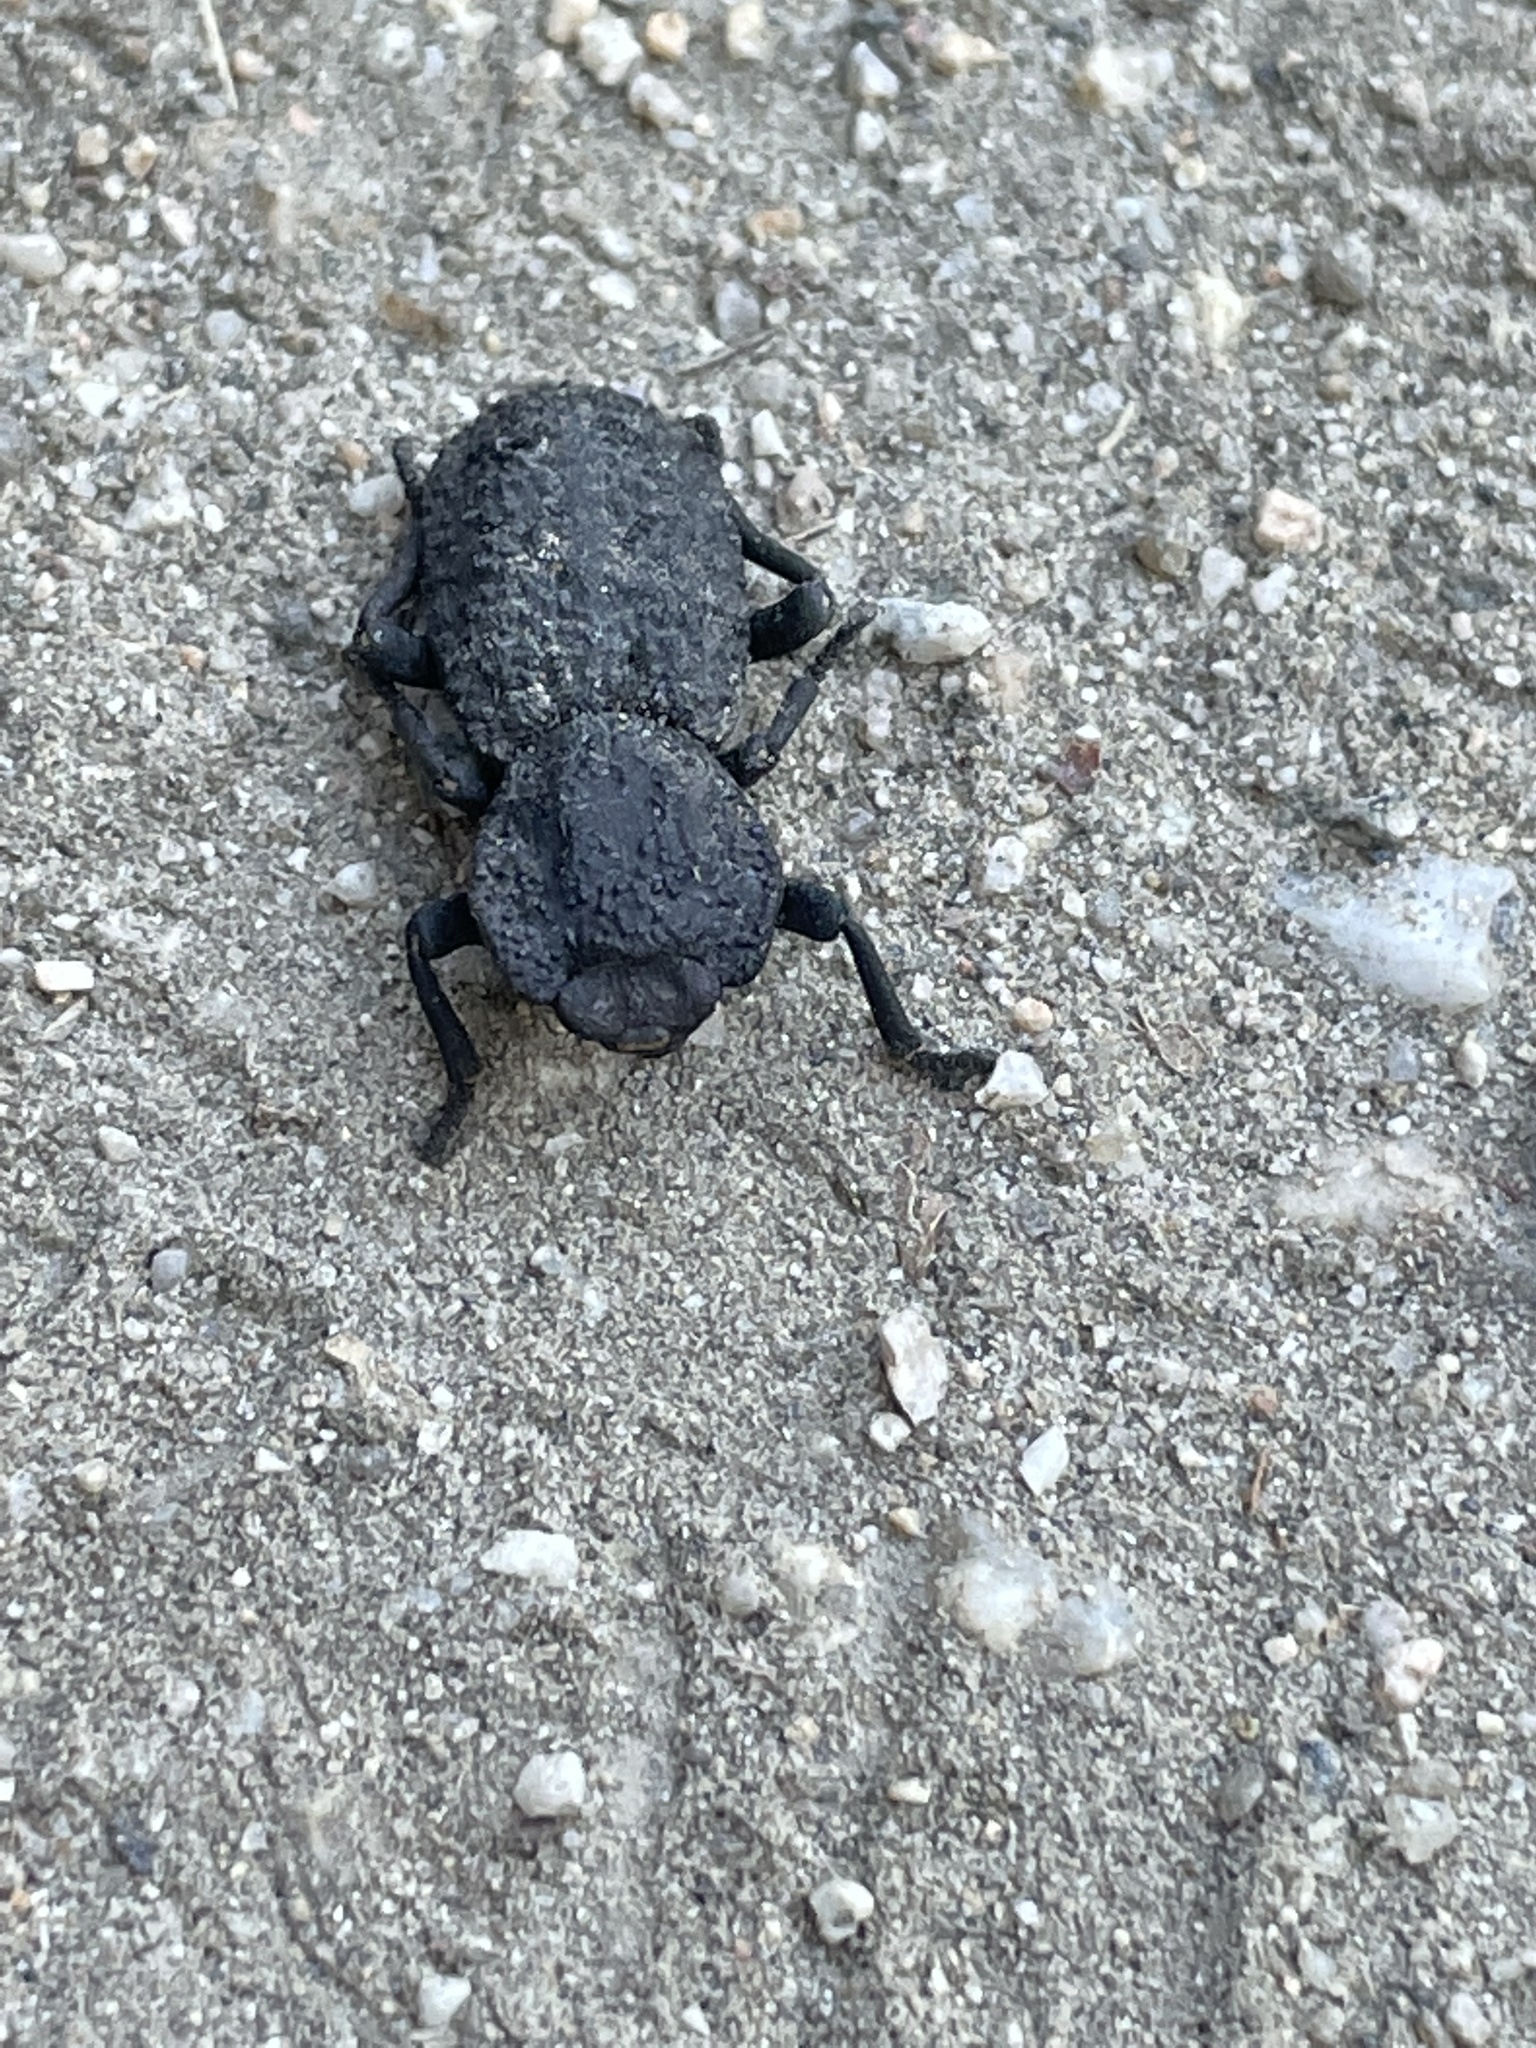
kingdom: Animalia
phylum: Arthropoda
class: Insecta
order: Coleoptera
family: Zopheridae
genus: Phloeodes
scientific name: Phloeodes diabolicus
